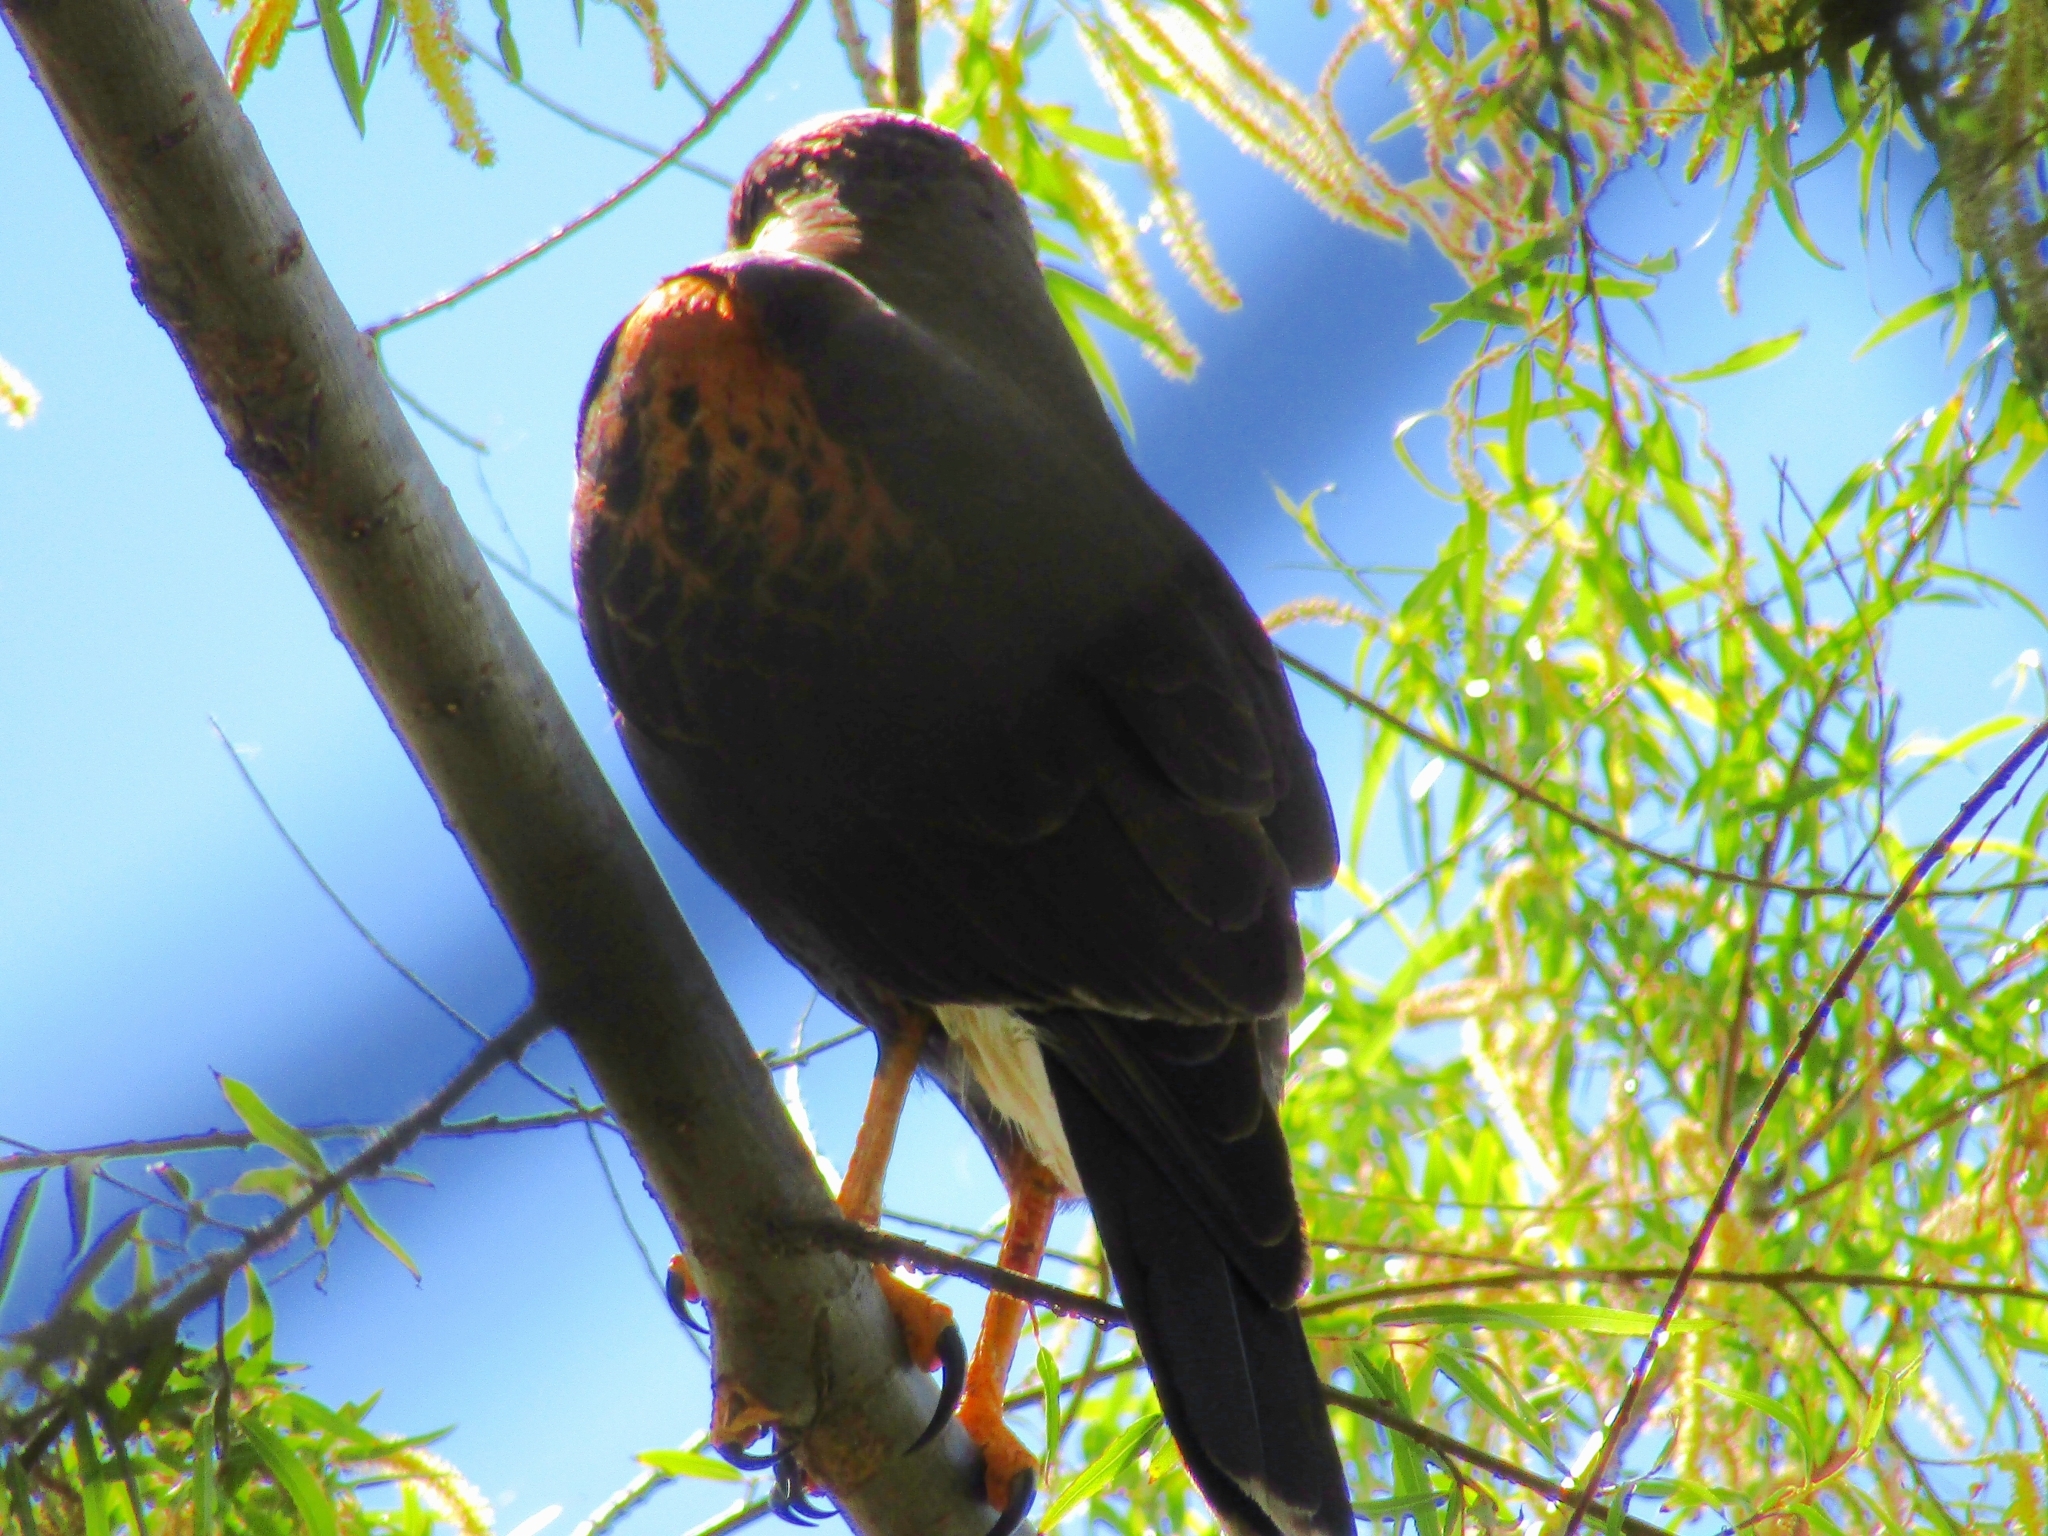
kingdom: Animalia
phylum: Chordata
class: Aves
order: Accipitriformes
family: Accipitridae
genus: Parabuteo
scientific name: Parabuteo unicinctus
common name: Harris's hawk
